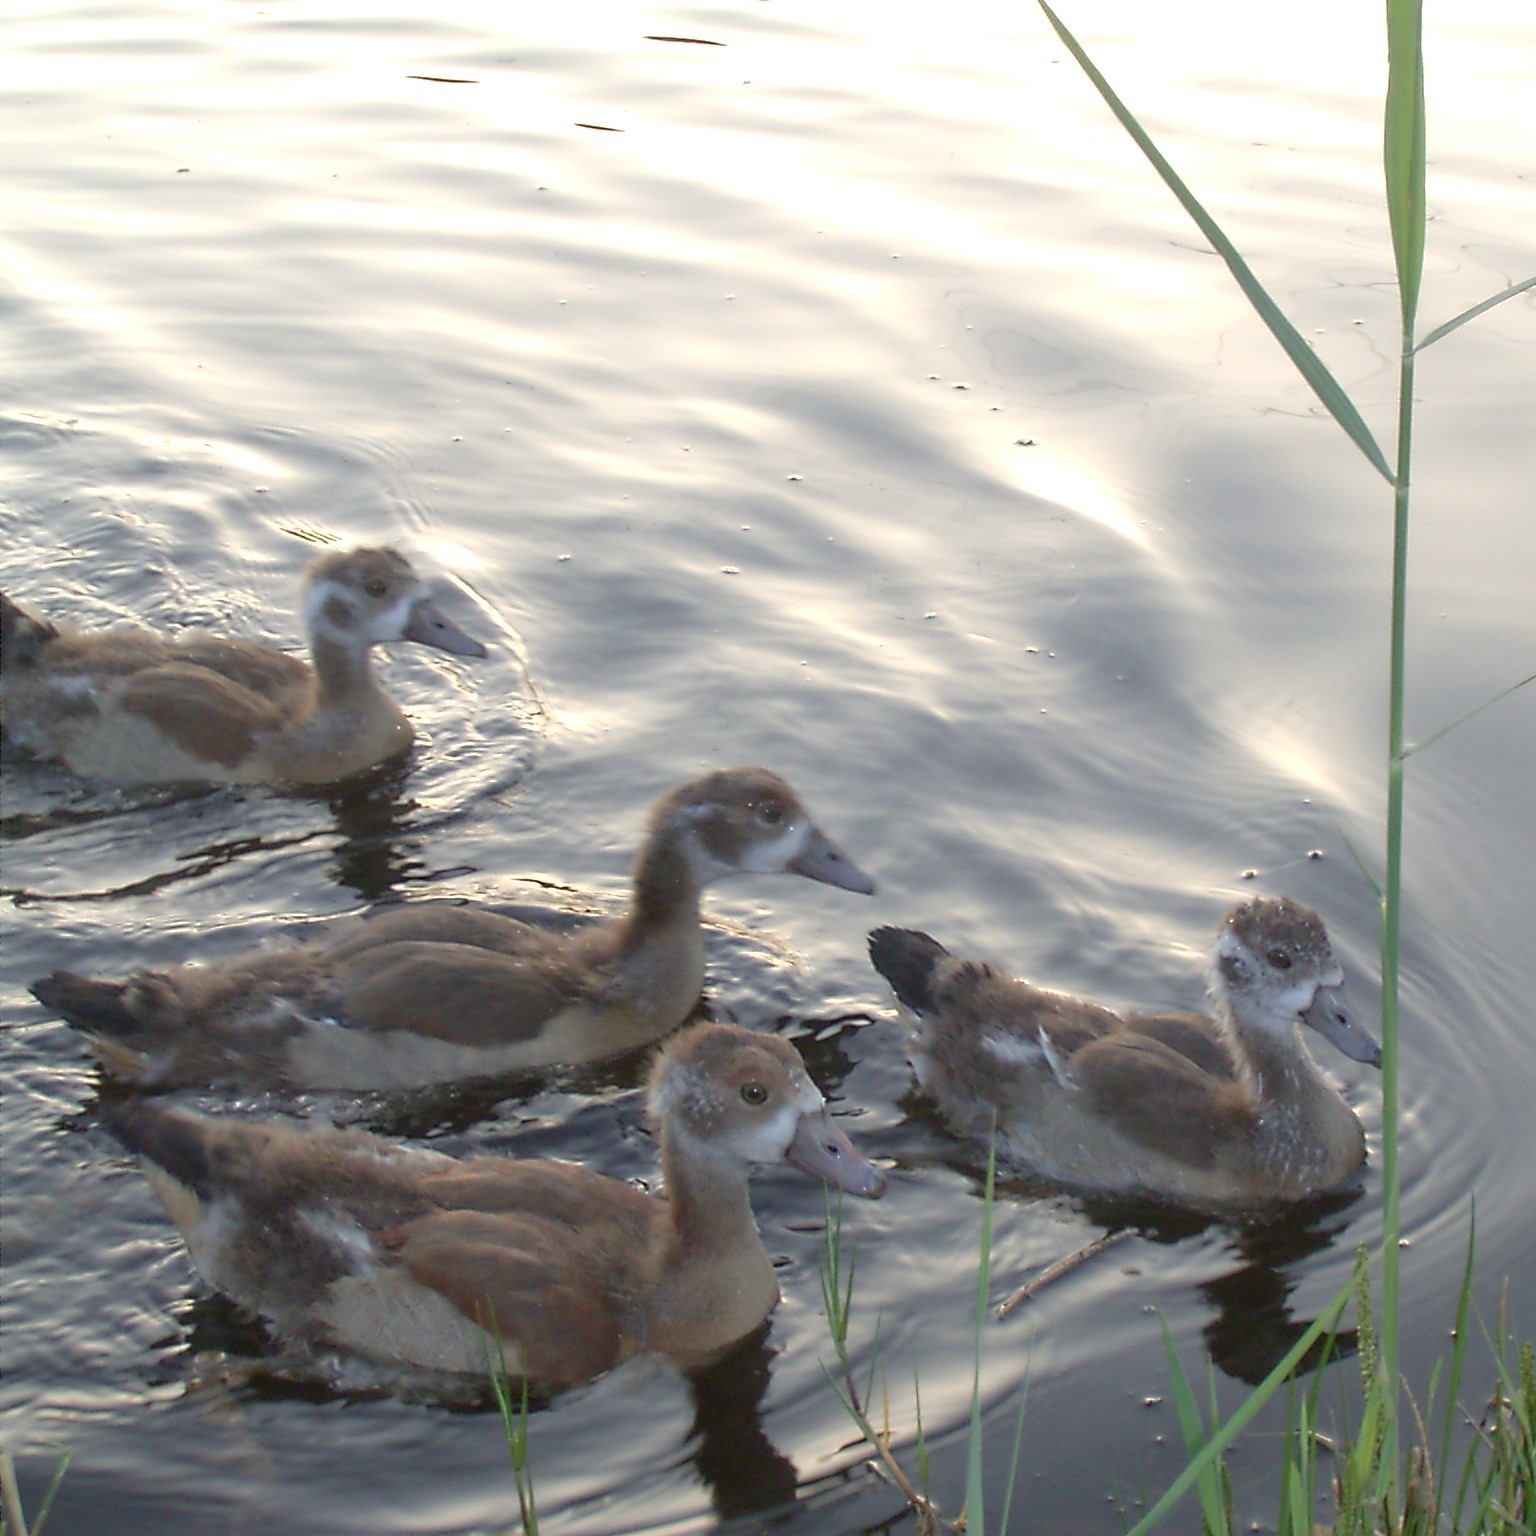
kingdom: Animalia
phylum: Chordata
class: Aves
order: Anseriformes
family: Anatidae
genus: Alopochen
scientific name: Alopochen aegyptiaca
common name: Egyptian goose
